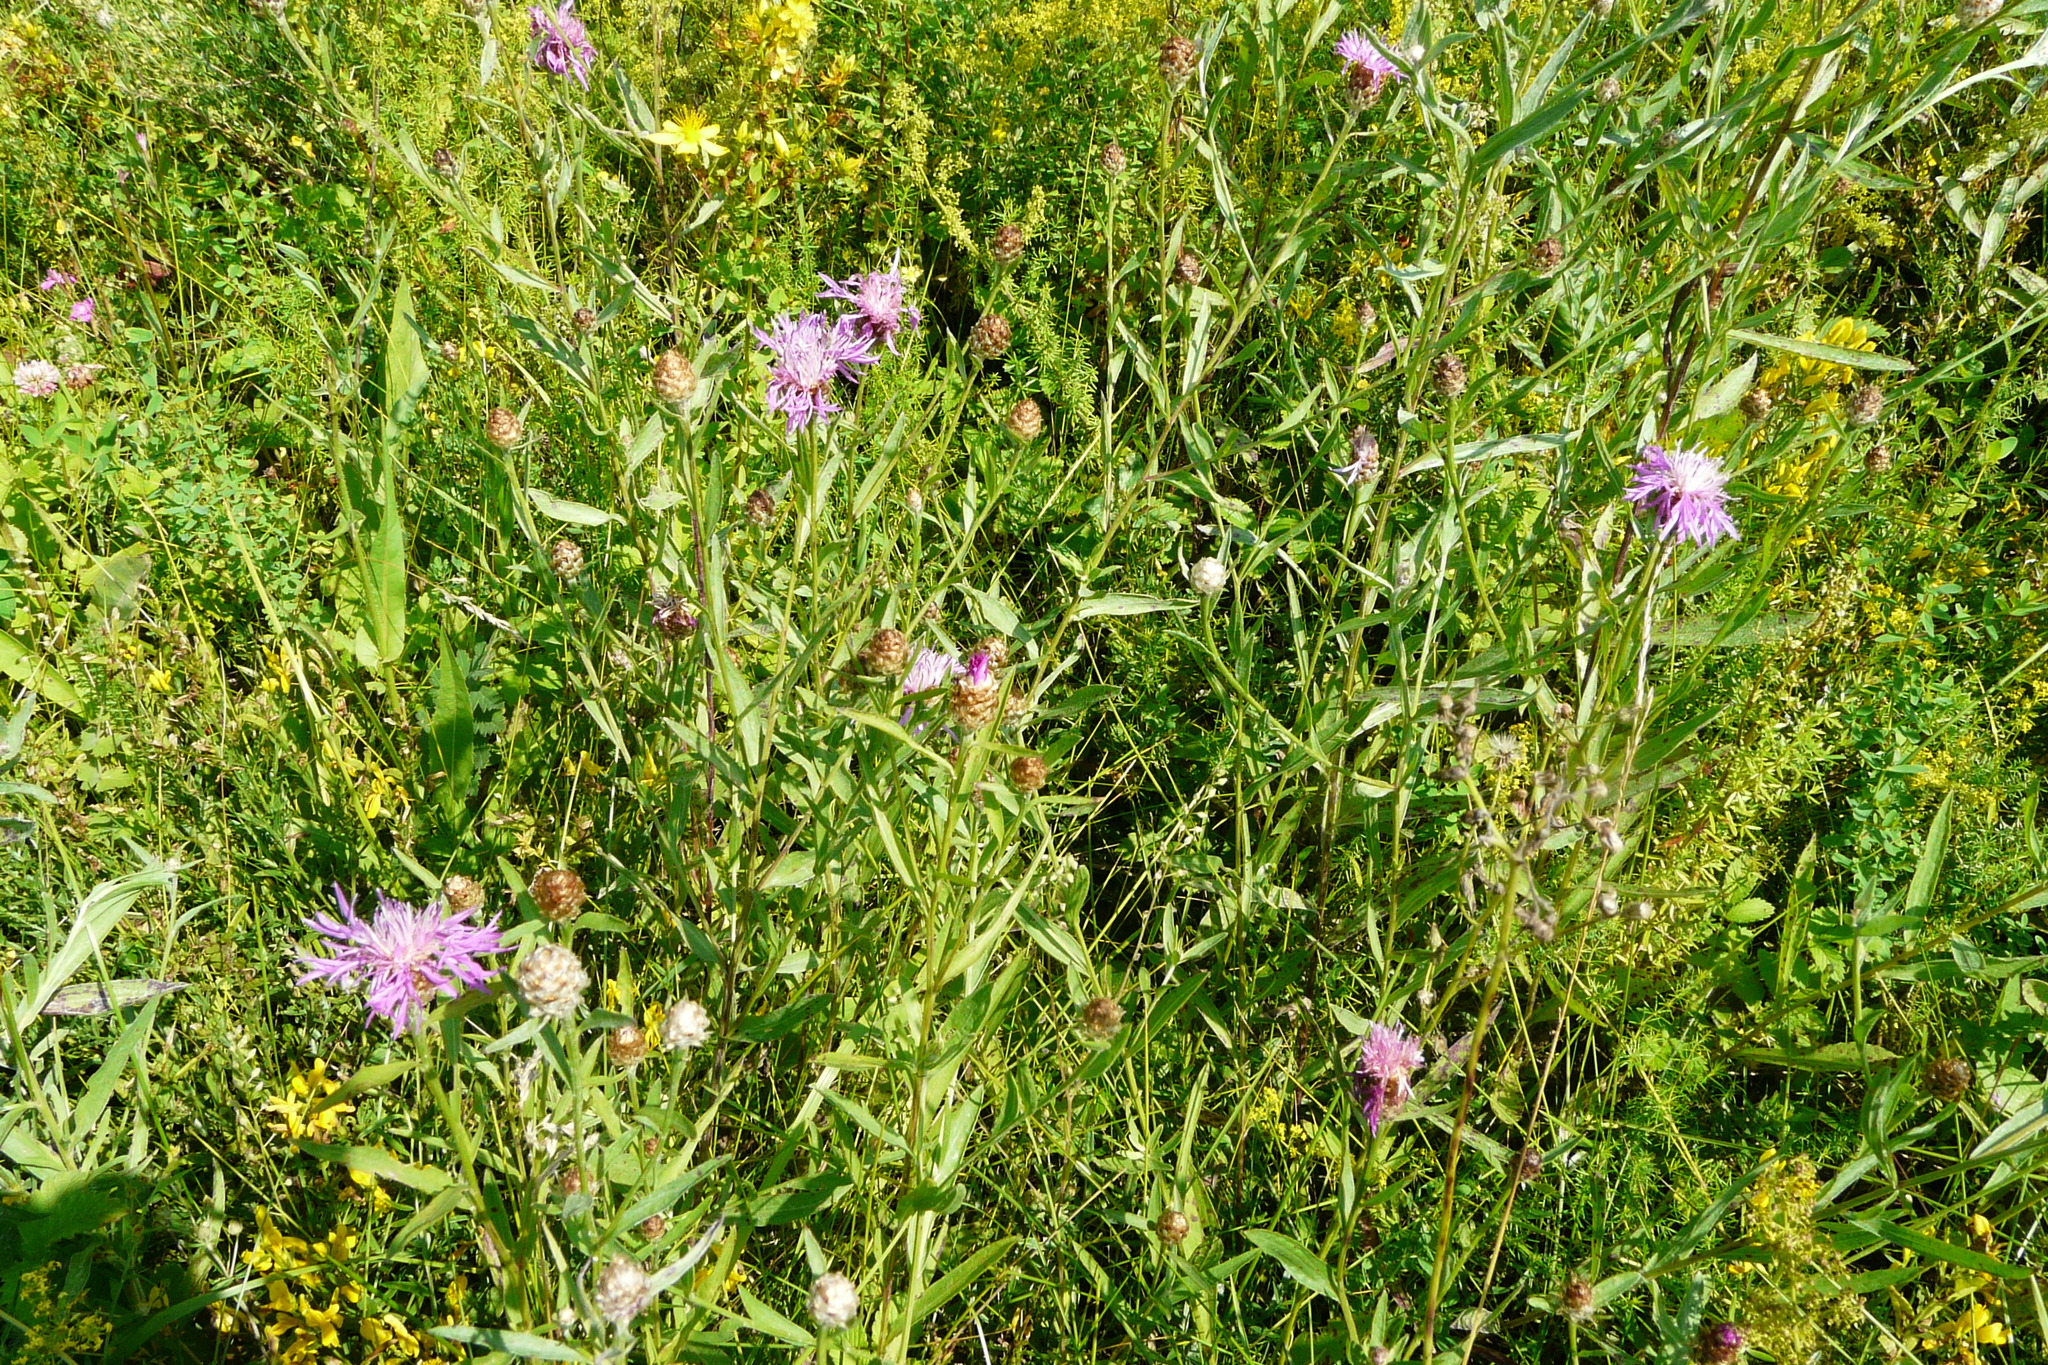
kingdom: Plantae
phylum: Tracheophyta
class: Magnoliopsida
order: Asterales
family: Asteraceae
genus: Centaurea
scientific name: Centaurea jacea
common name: Brown knapweed
